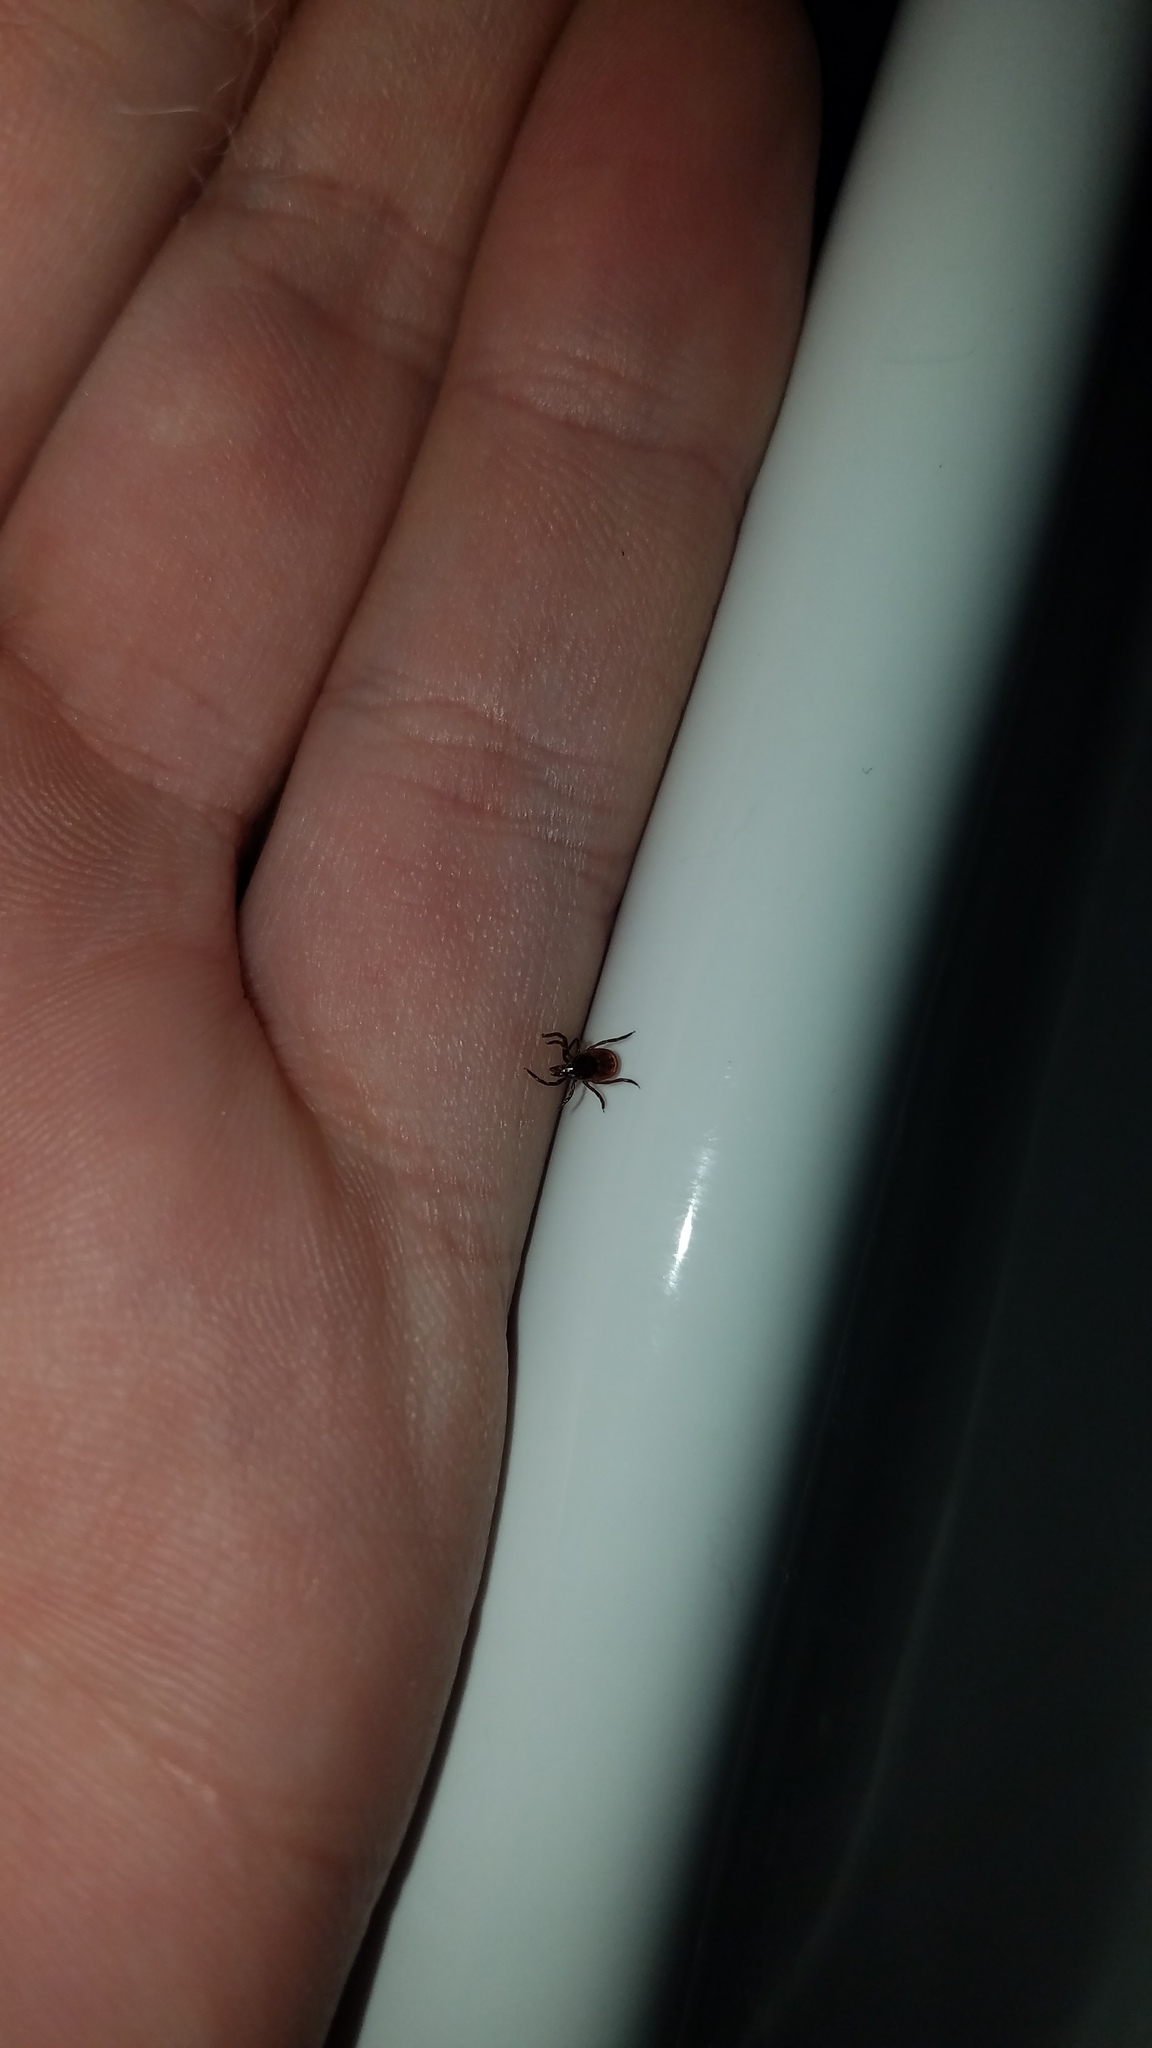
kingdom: Animalia
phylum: Arthropoda
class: Arachnida
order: Ixodida
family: Ixodidae
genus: Ixodes
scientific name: Ixodes scapularis
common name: Black legged tick
